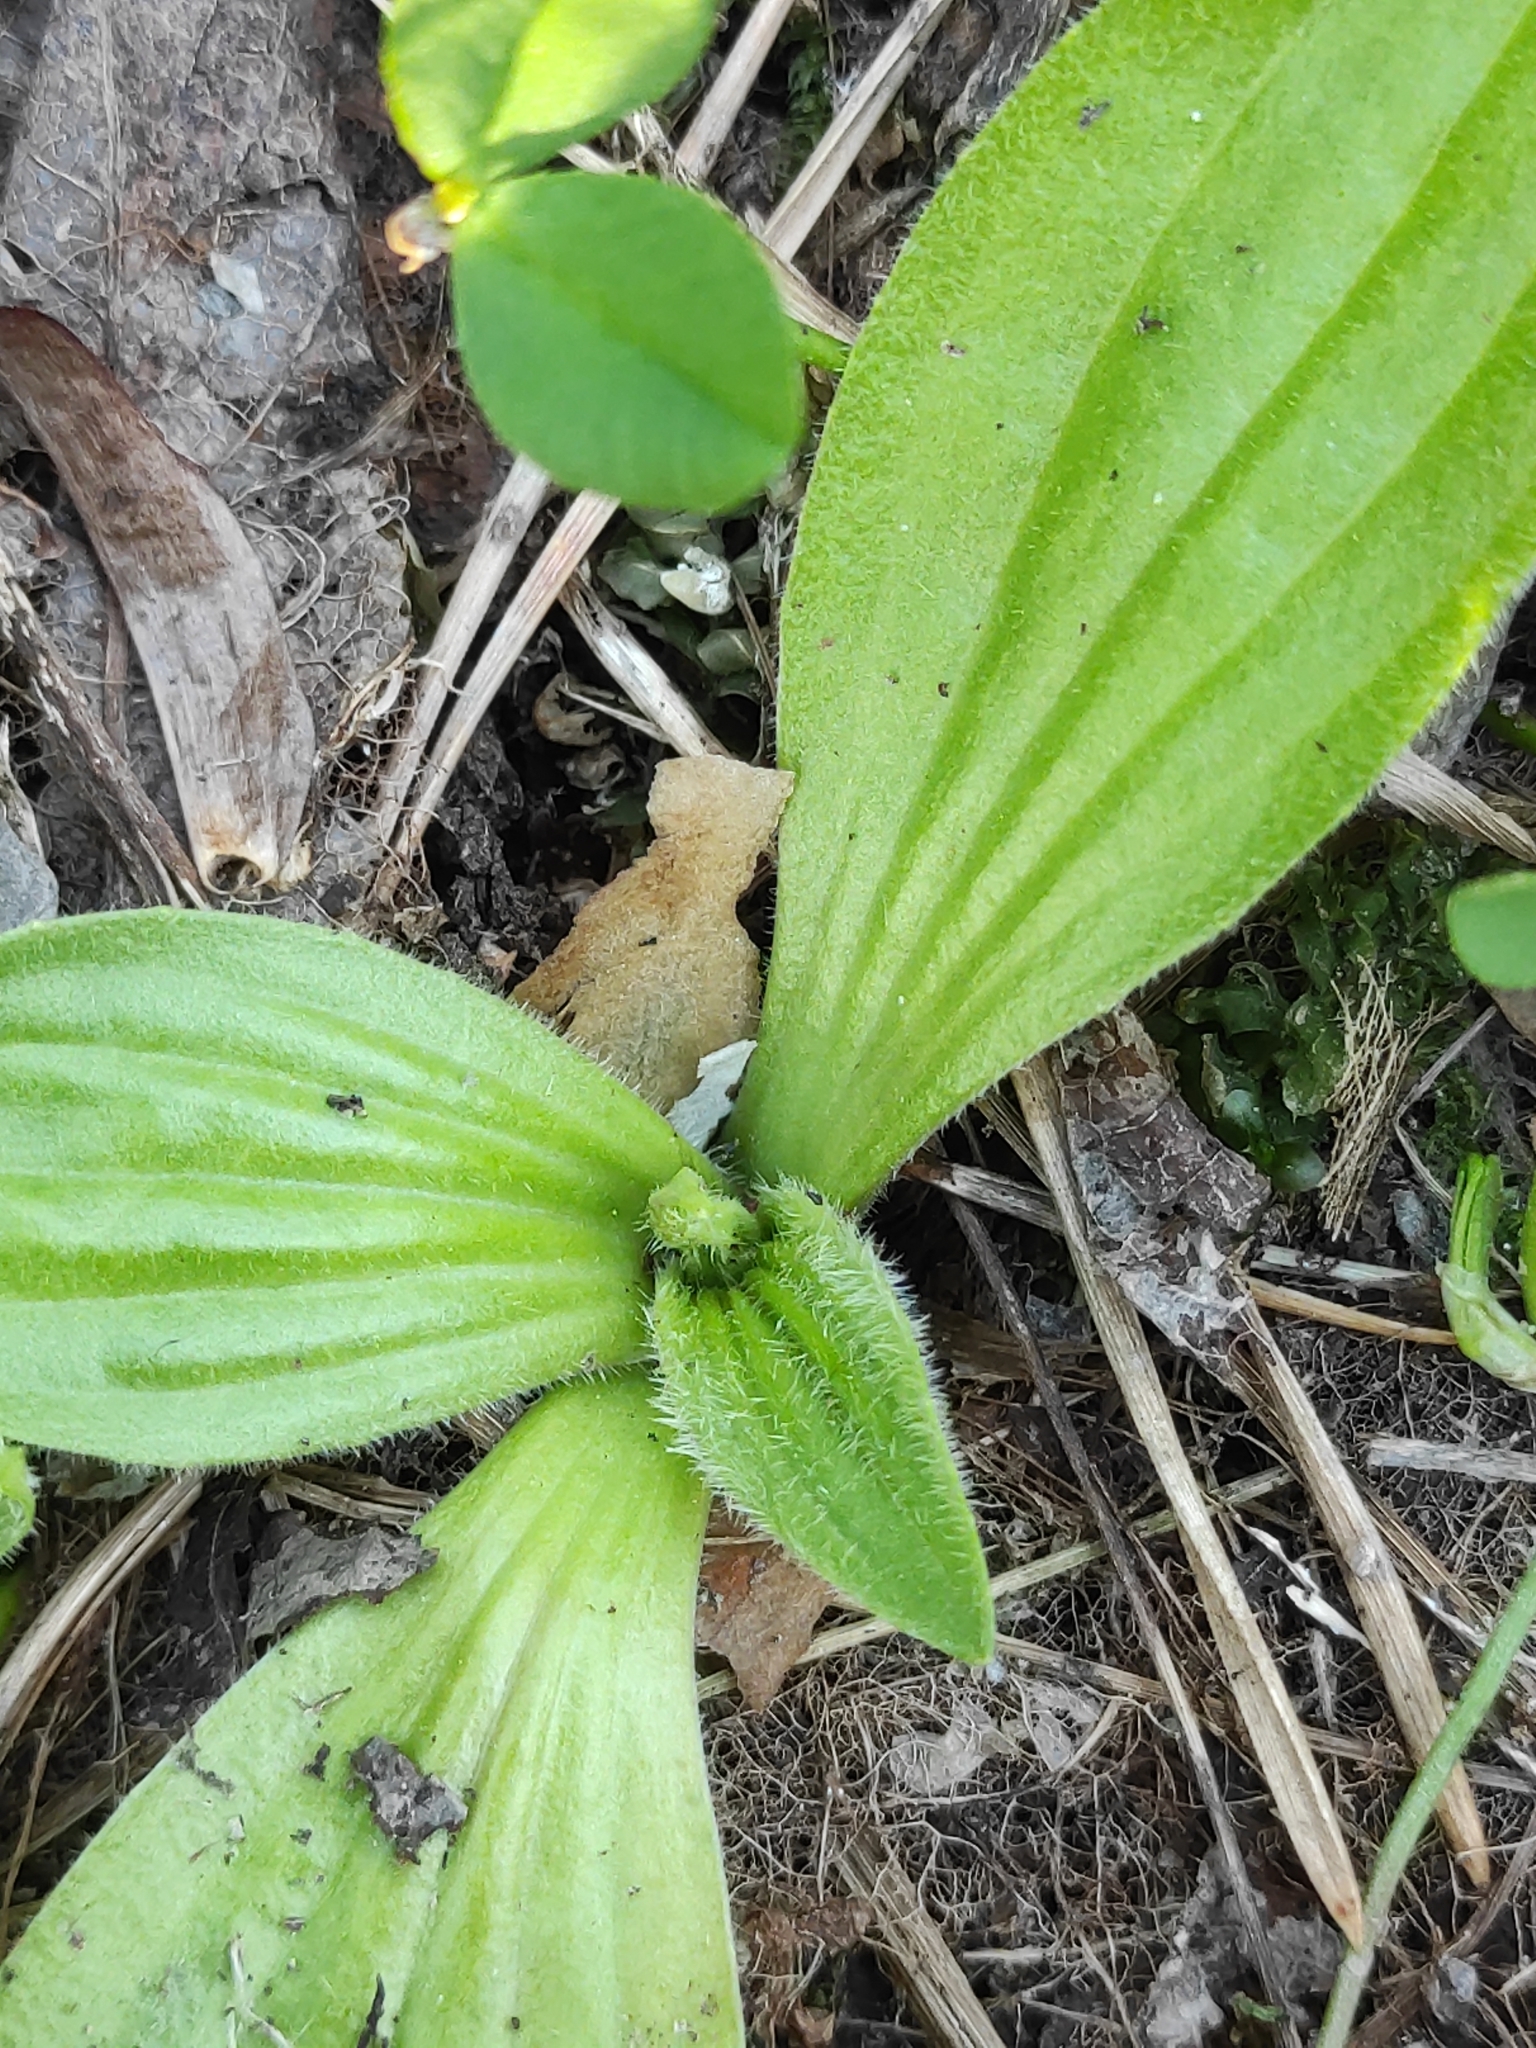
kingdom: Plantae
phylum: Tracheophyta
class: Magnoliopsida
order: Lamiales
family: Plantaginaceae
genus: Plantago
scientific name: Plantago media
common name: Hoary plantain
